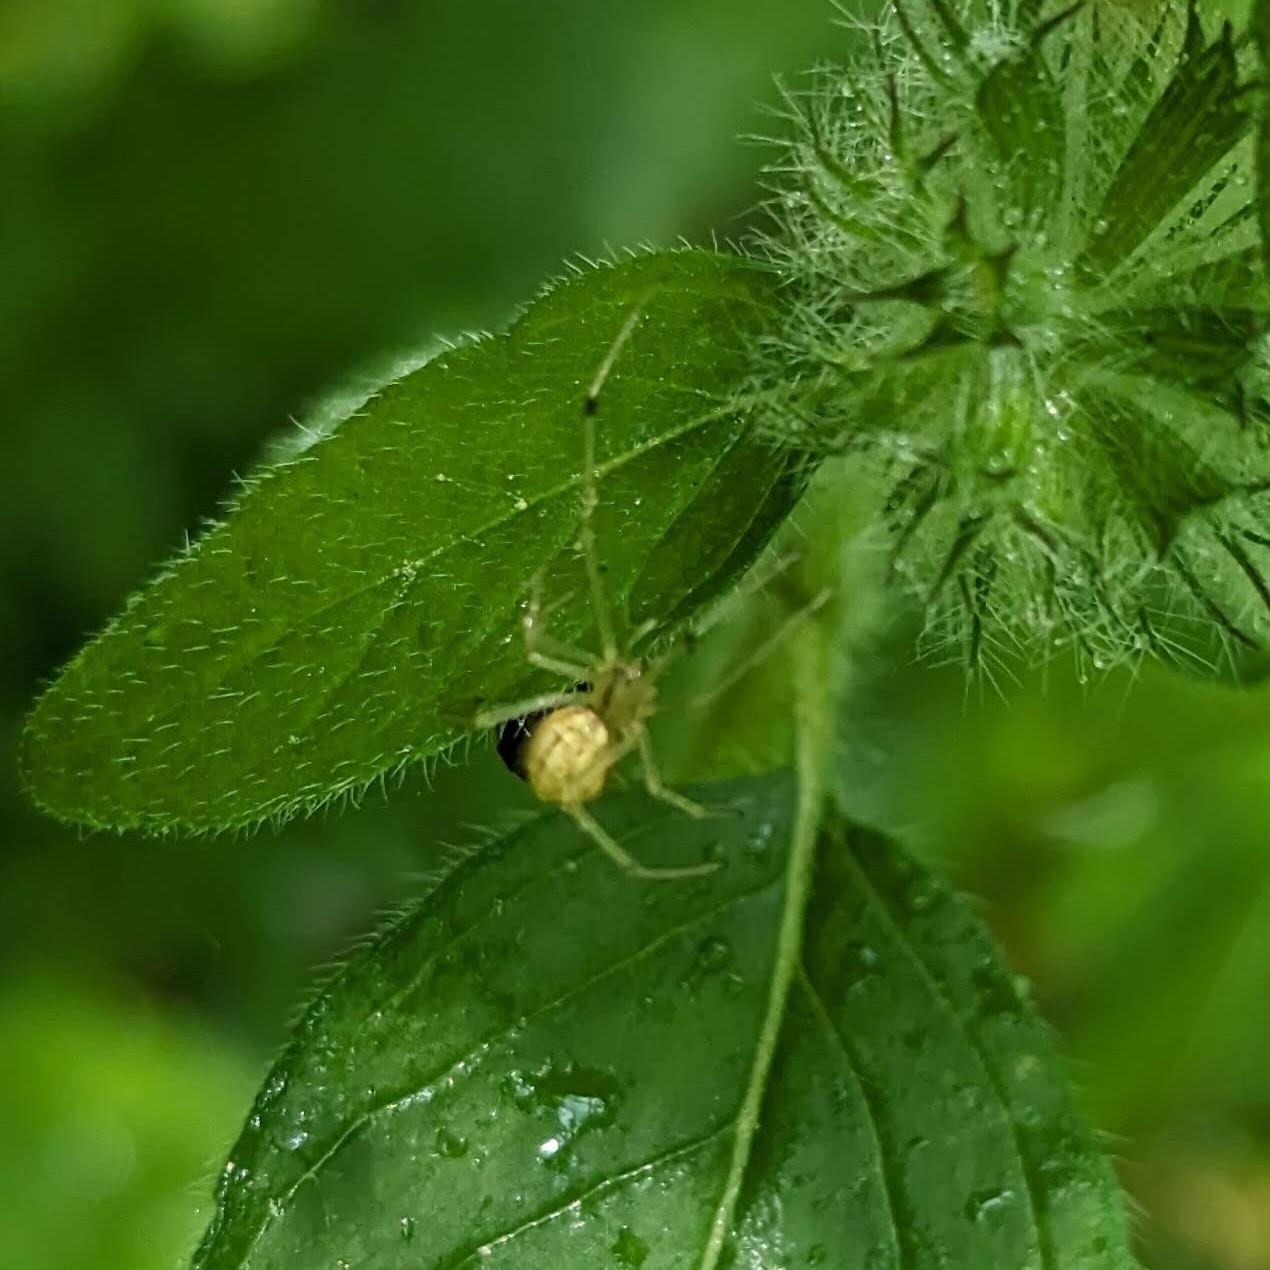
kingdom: Animalia
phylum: Arthropoda
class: Arachnida
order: Araneae
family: Theridiidae
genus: Enoplognatha
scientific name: Enoplognatha ovata
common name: Common candy-striped spider
